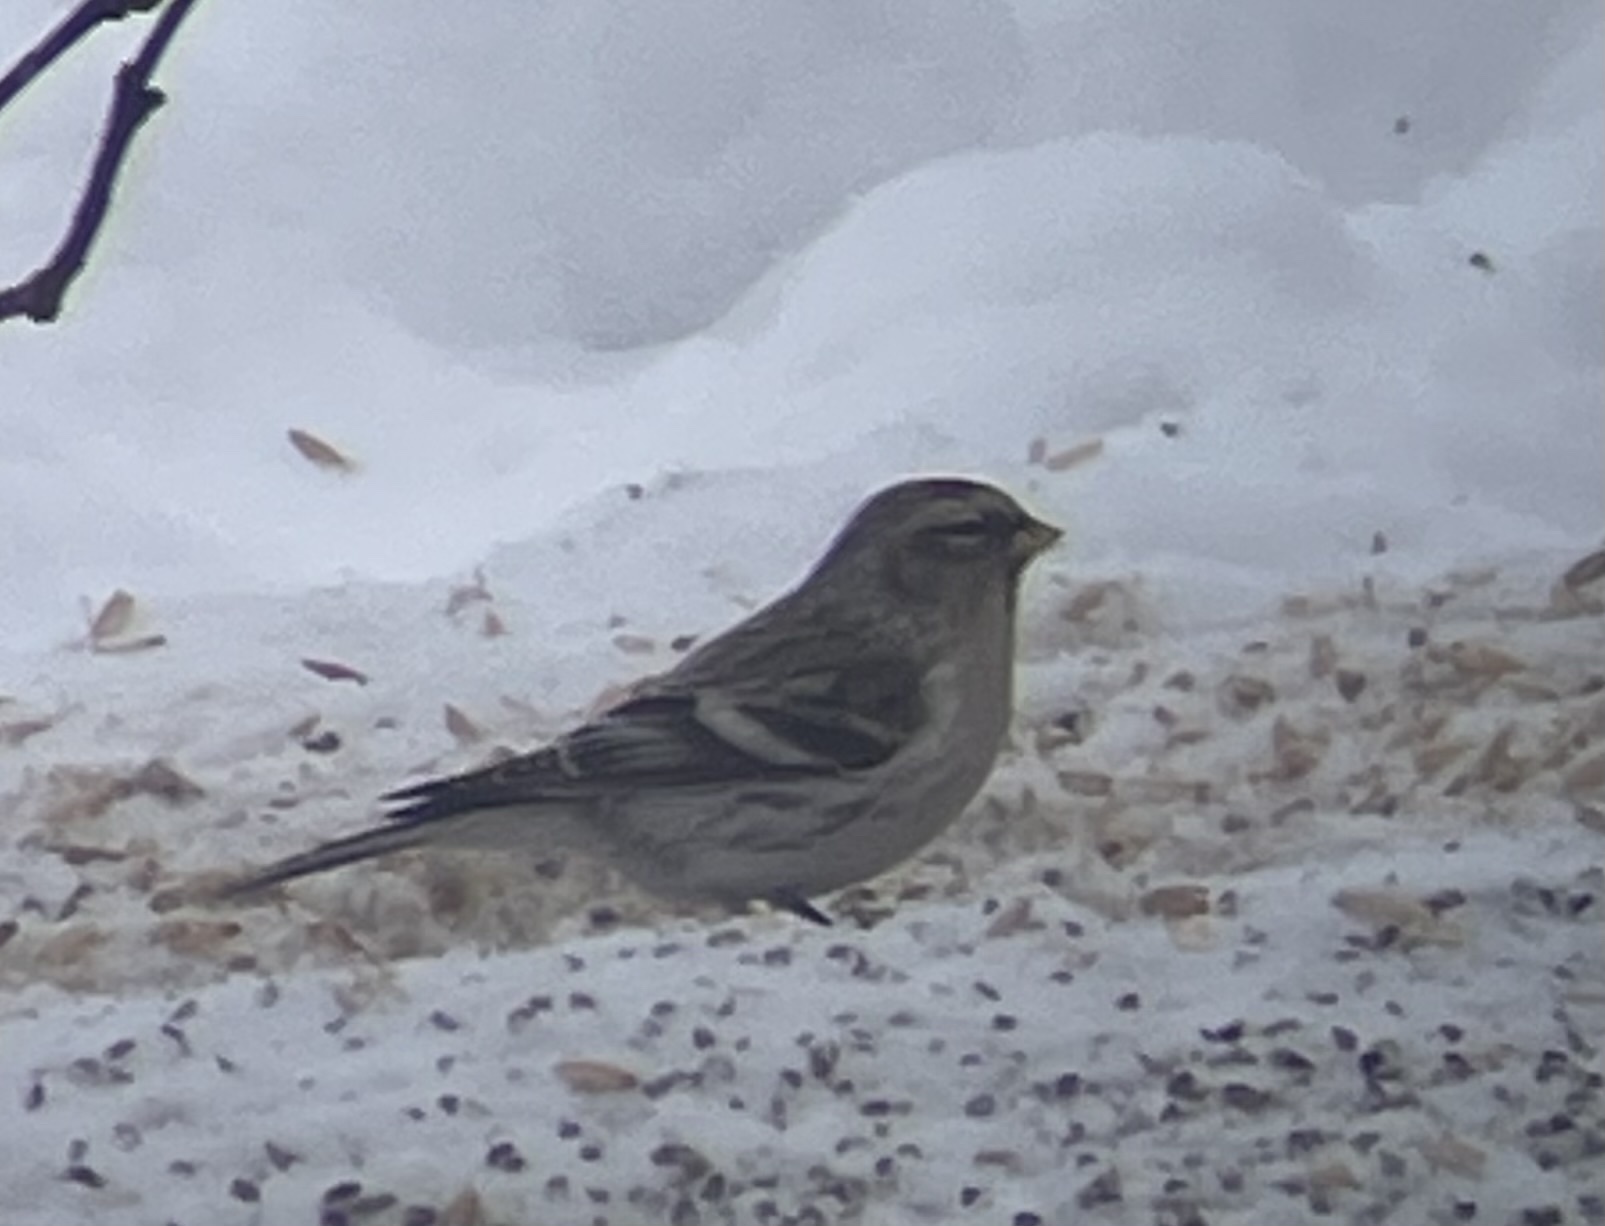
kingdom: Animalia
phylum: Chordata
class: Aves
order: Passeriformes
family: Fringillidae
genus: Acanthis
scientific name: Acanthis flammea
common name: Common redpoll
